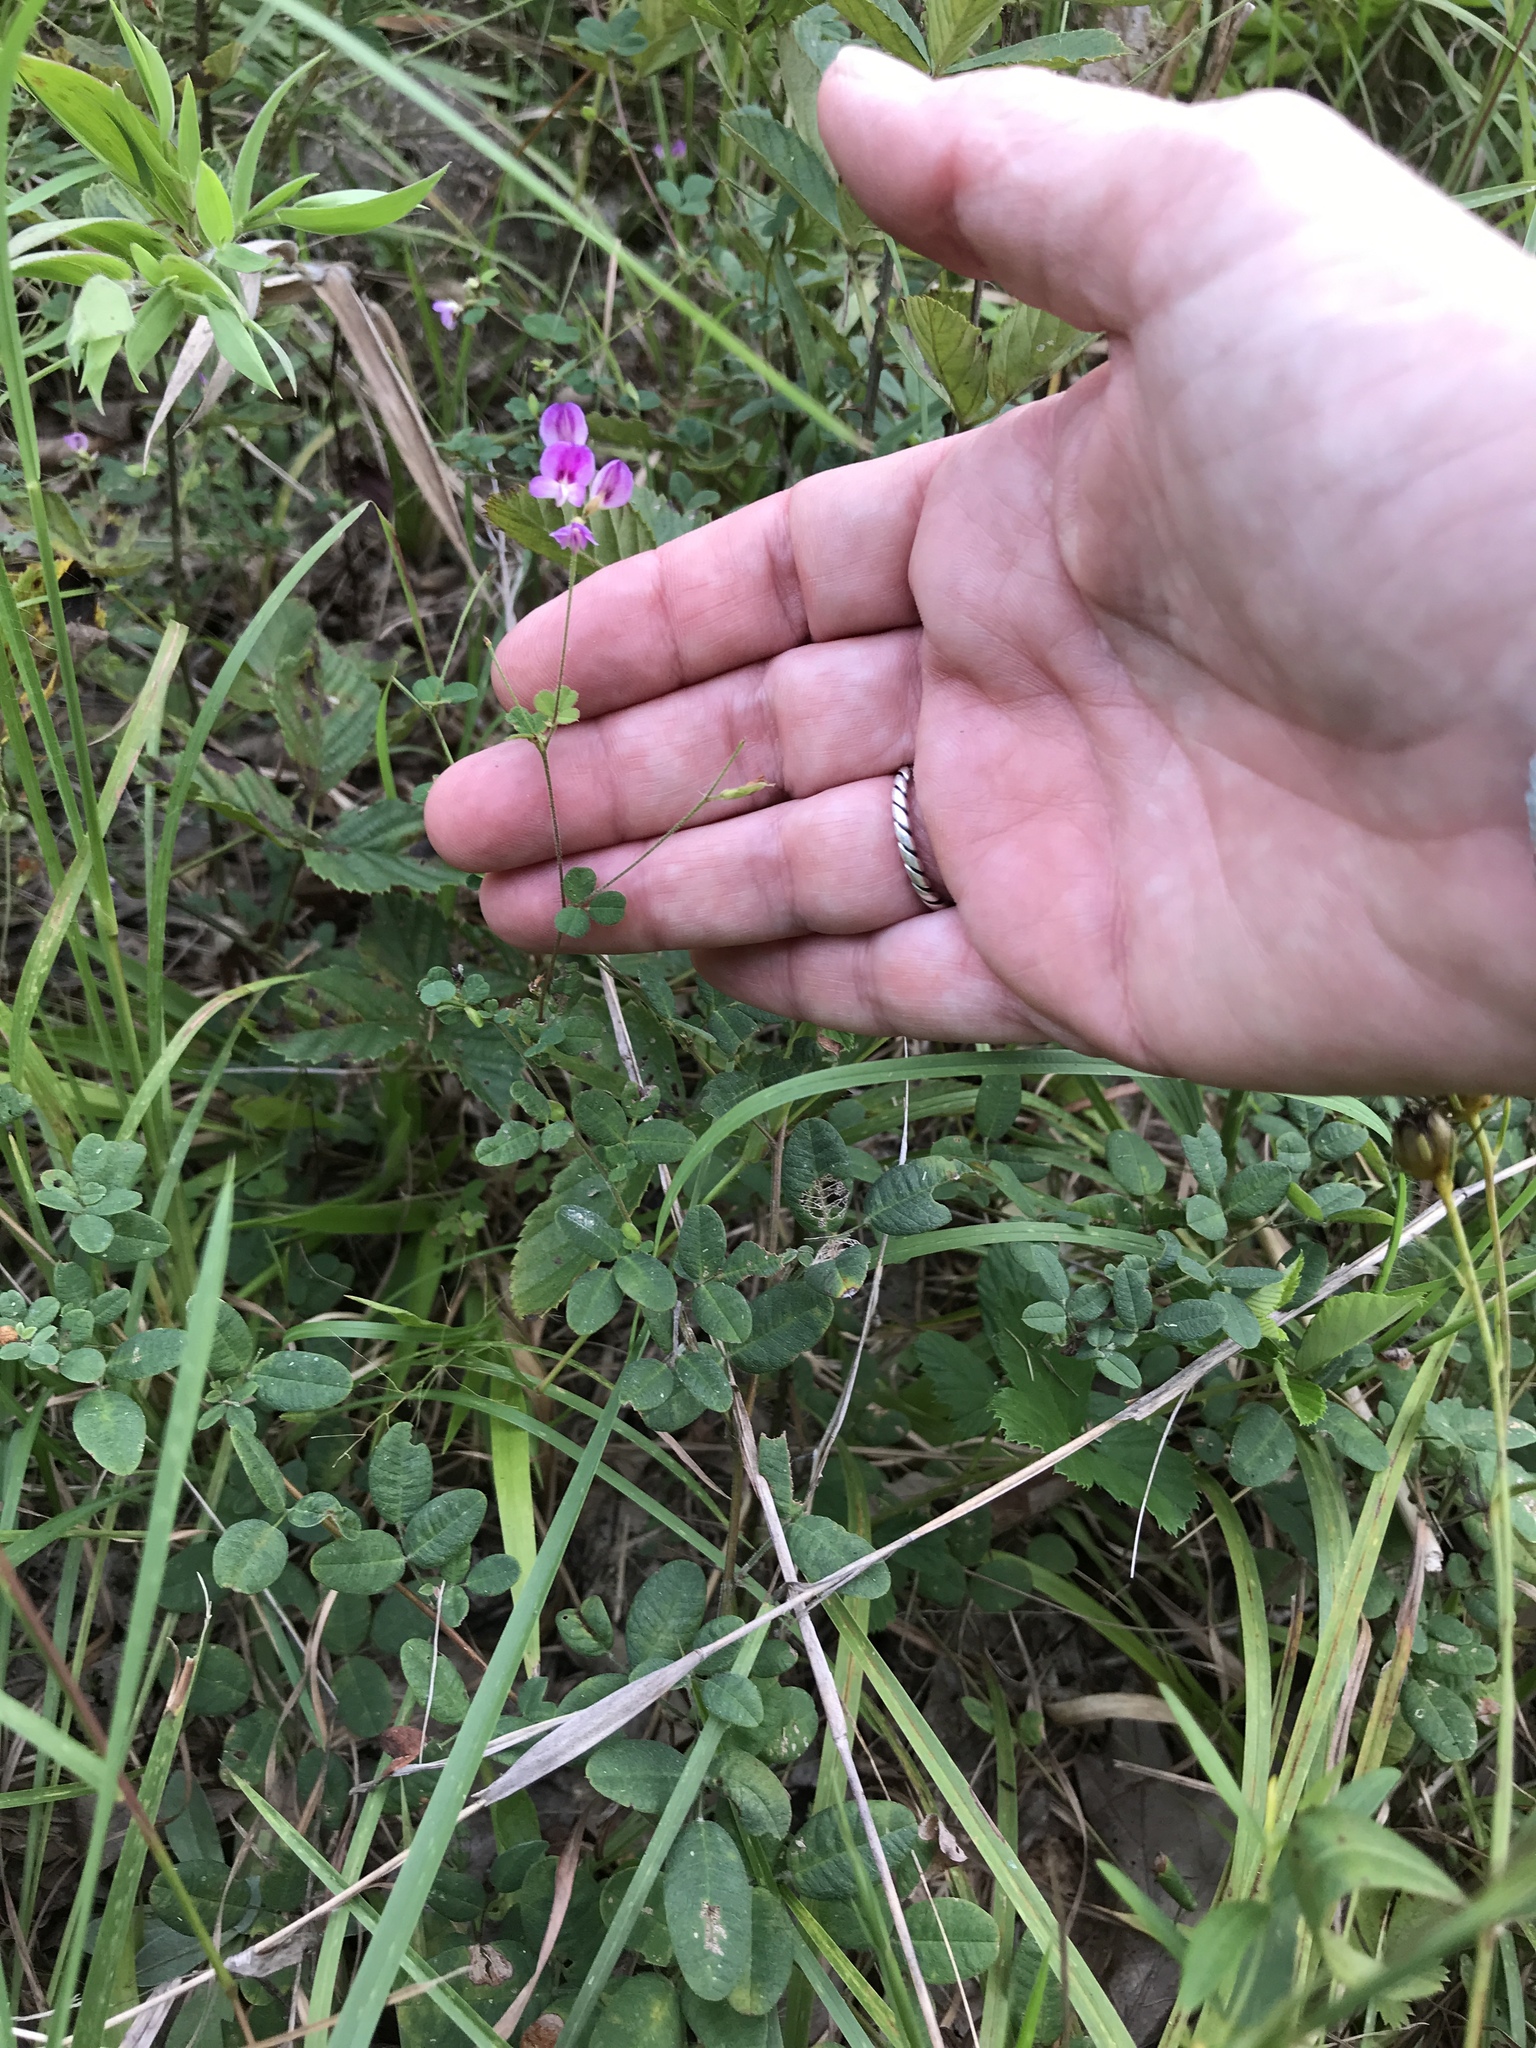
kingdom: Plantae
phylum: Tracheophyta
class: Magnoliopsida
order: Fabales
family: Fabaceae
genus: Lespedeza
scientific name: Lespedeza procumbens
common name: Downy trailing bush-clover
